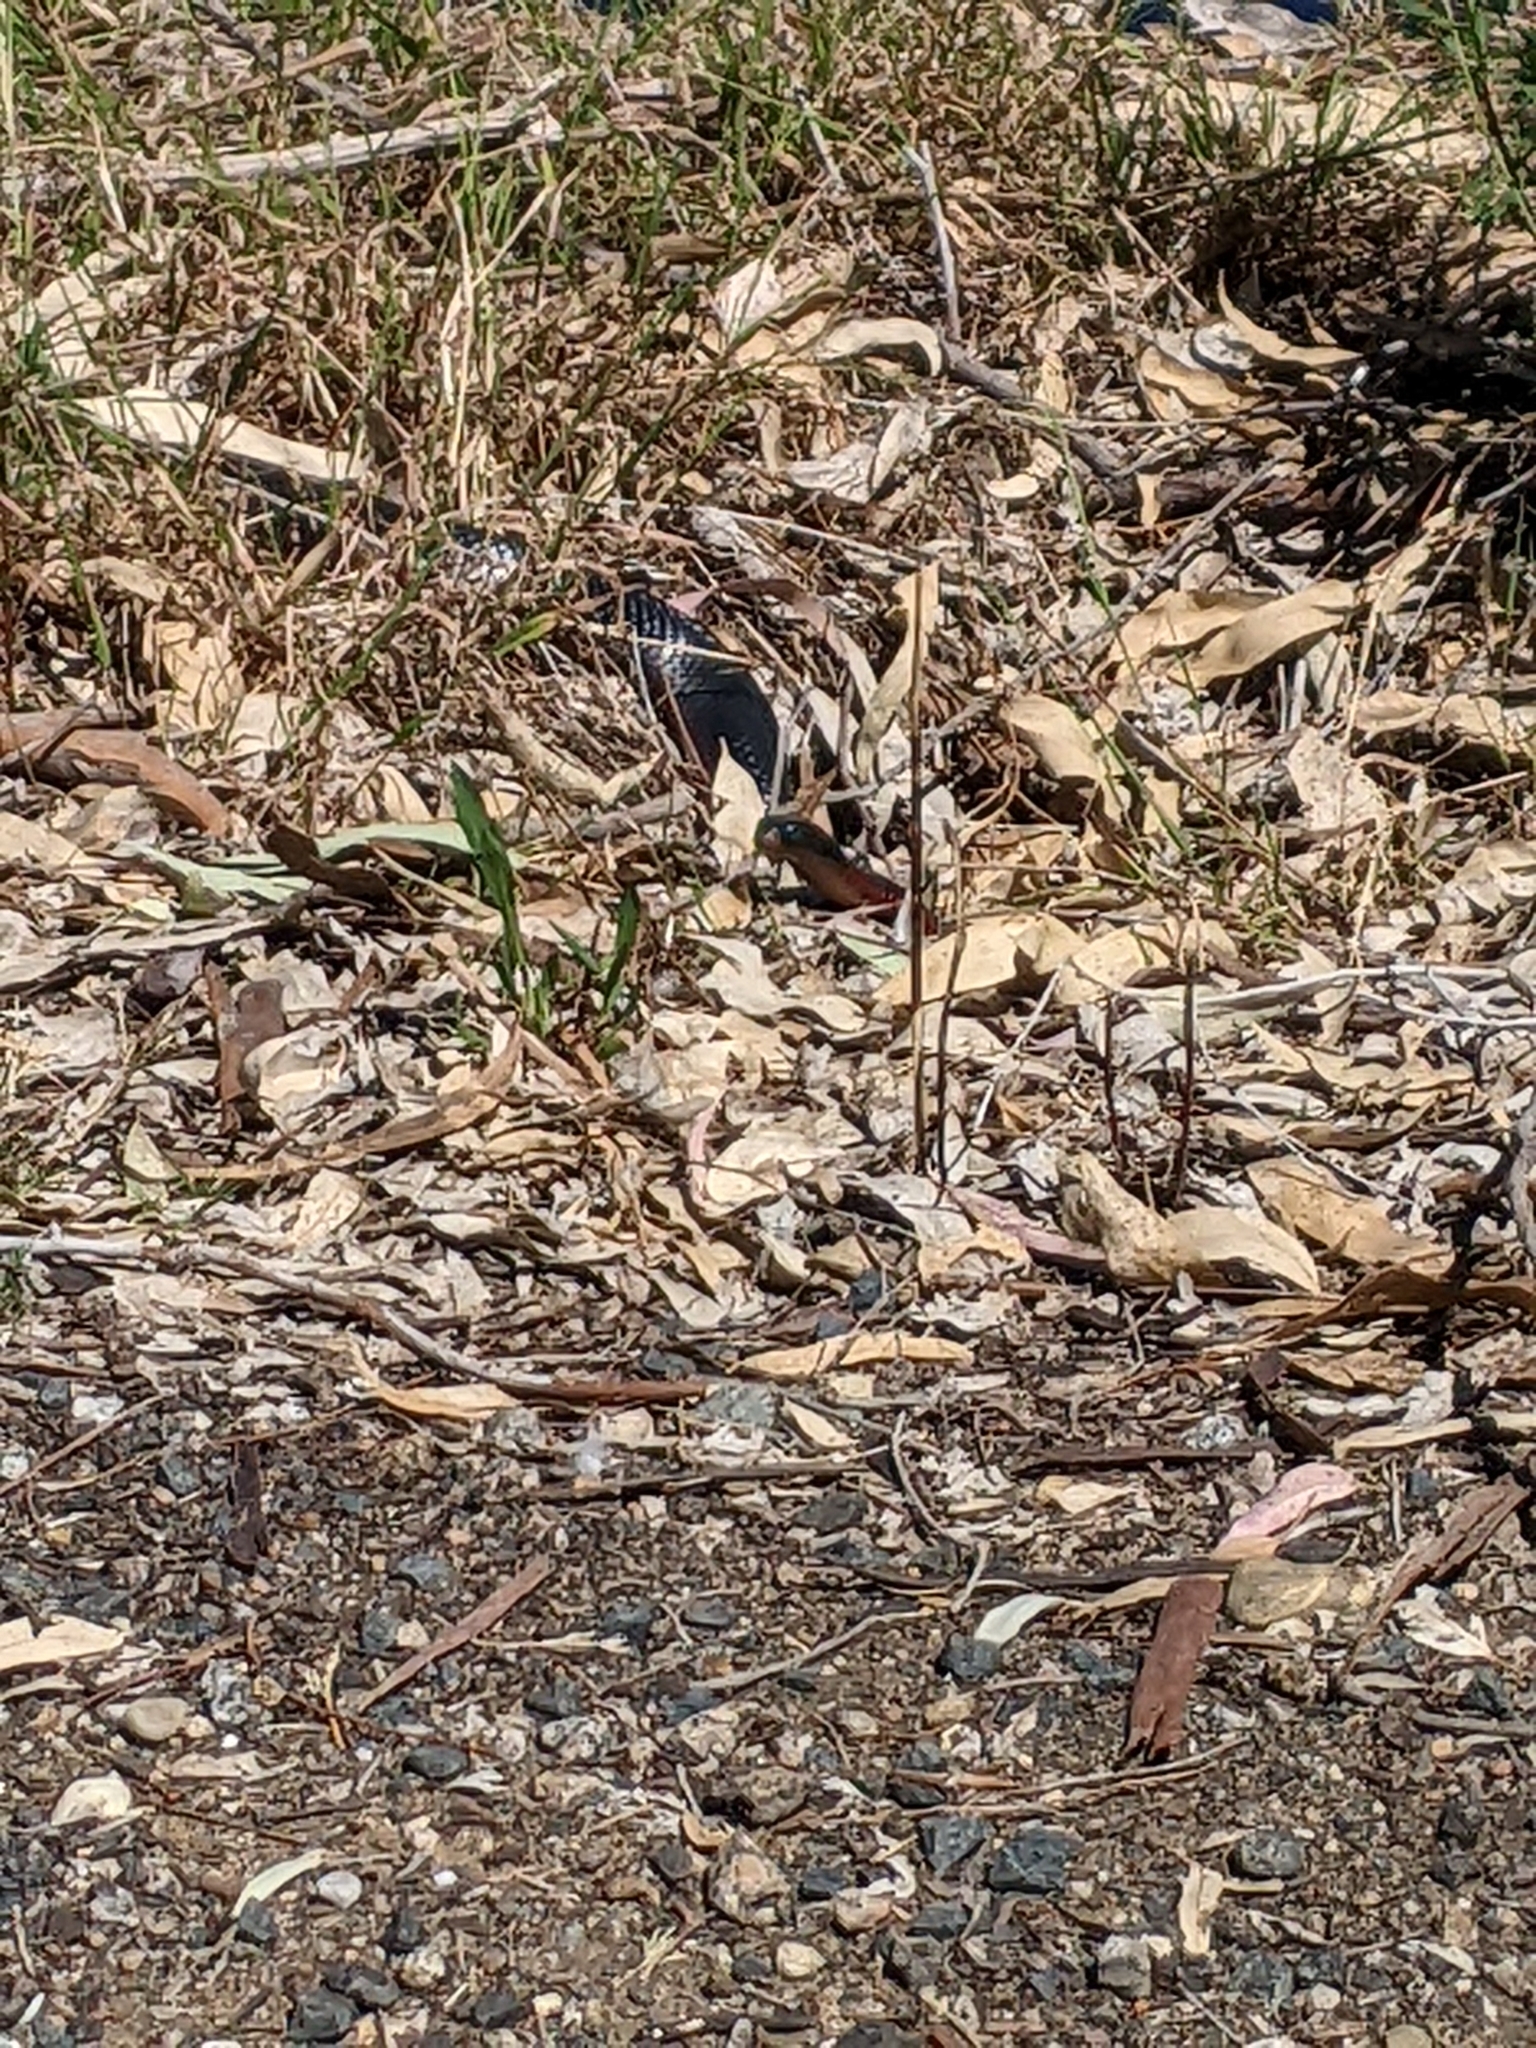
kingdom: Animalia
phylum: Chordata
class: Squamata
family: Elapidae
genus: Pseudechis
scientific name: Pseudechis porphyriacus
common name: Australian black snake
